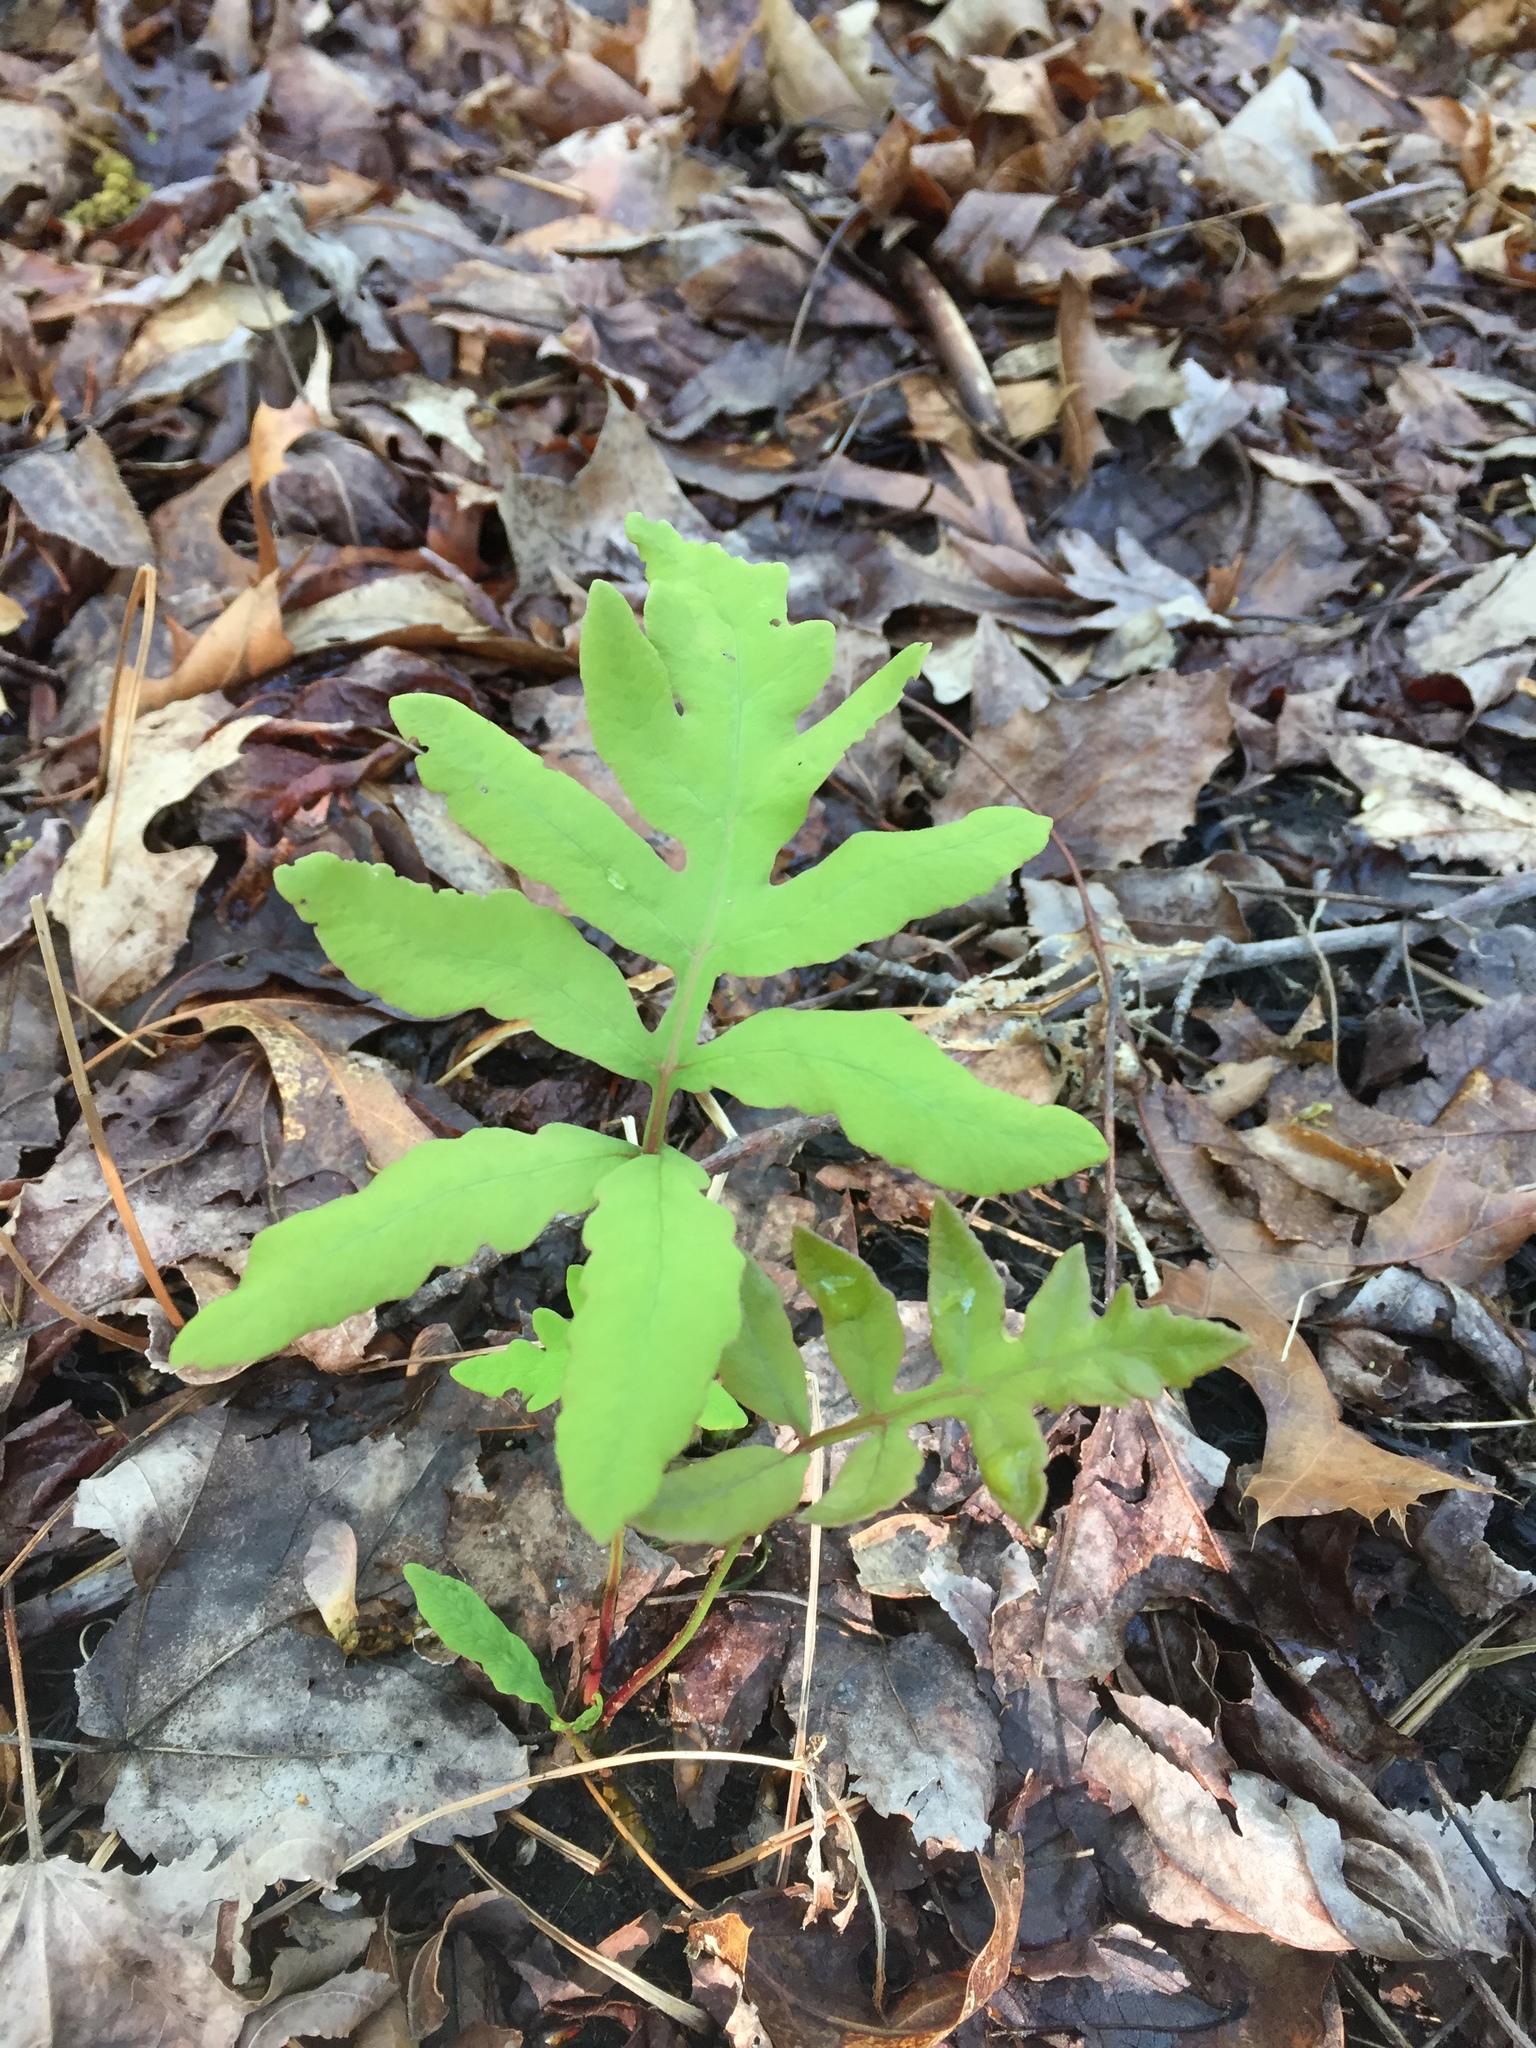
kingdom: Plantae
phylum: Tracheophyta
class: Polypodiopsida
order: Polypodiales
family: Onocleaceae
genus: Onoclea
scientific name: Onoclea sensibilis
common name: Sensitive fern
